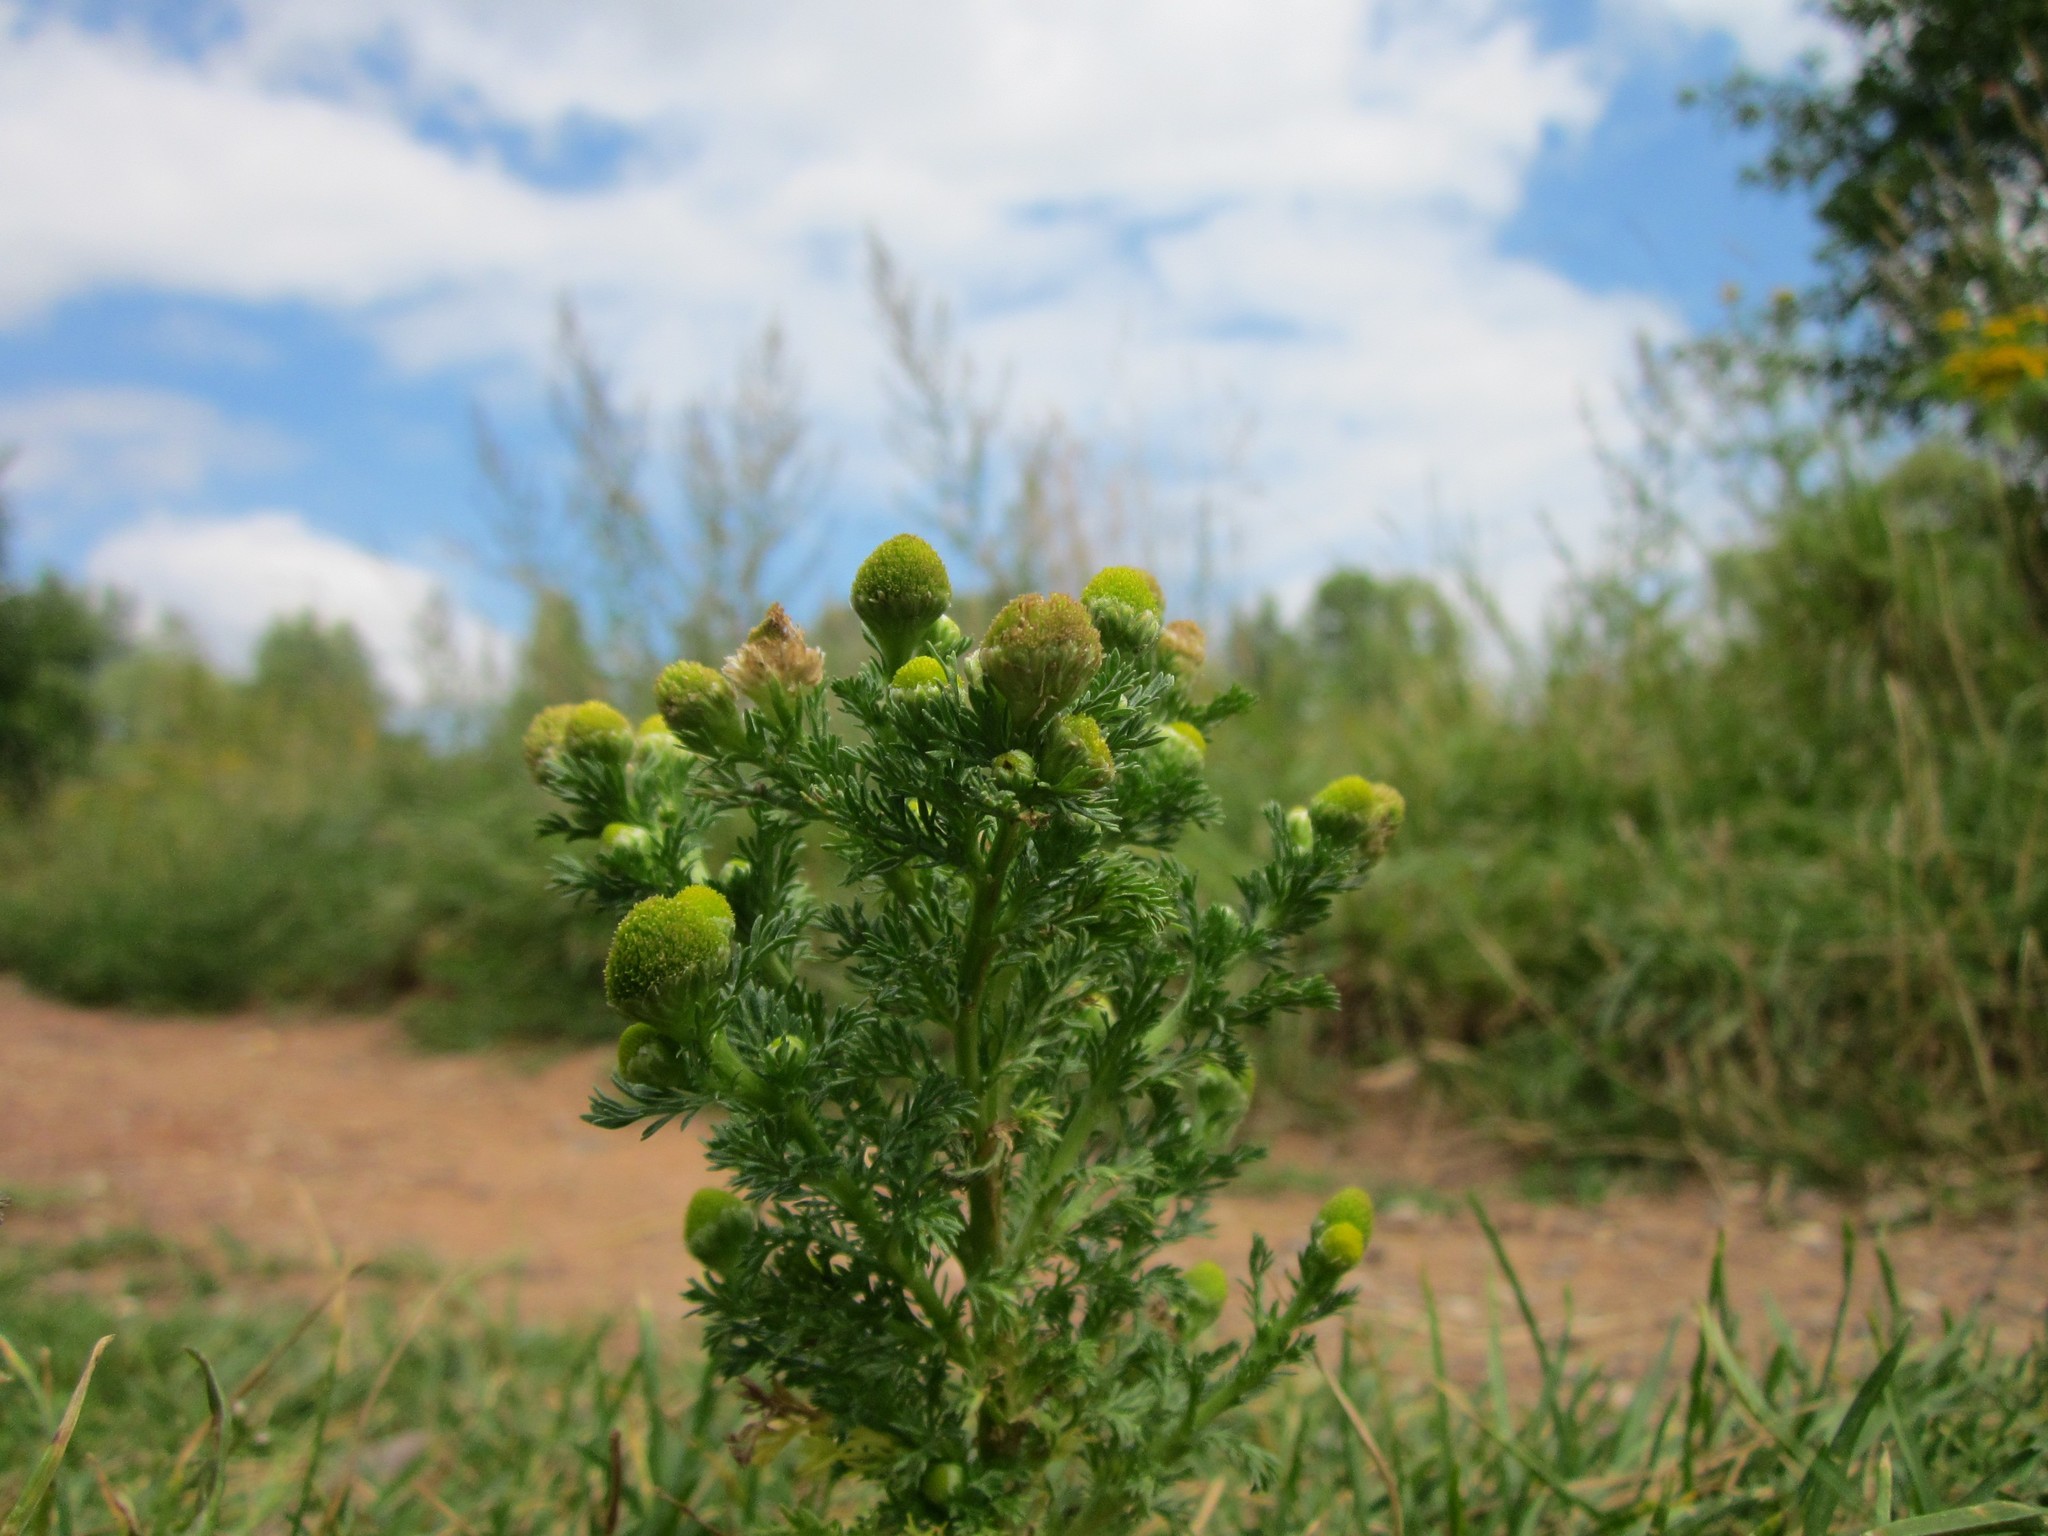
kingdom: Plantae
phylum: Tracheophyta
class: Magnoliopsida
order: Asterales
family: Asteraceae
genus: Matricaria
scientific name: Matricaria discoidea
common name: Disc mayweed
